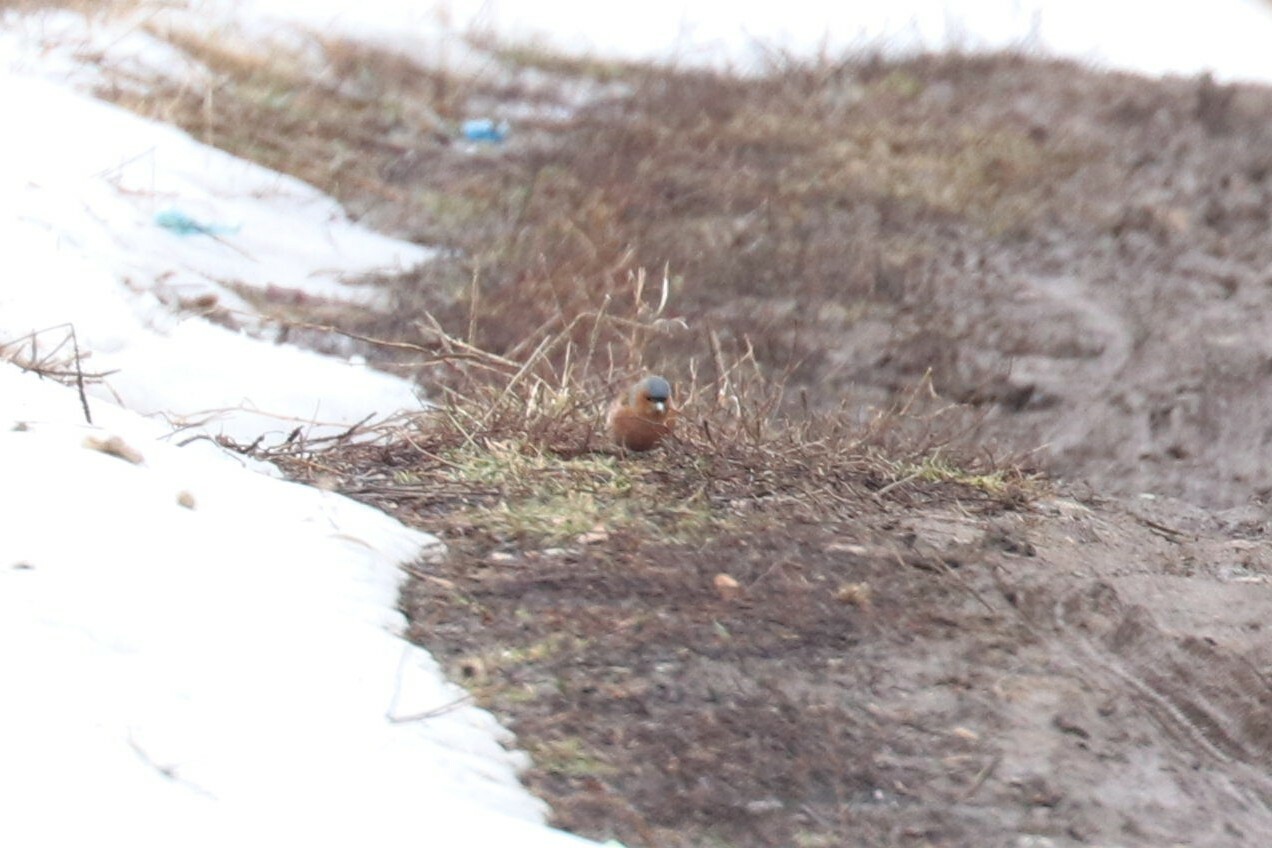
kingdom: Animalia
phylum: Chordata
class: Aves
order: Passeriformes
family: Fringillidae
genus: Fringilla
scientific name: Fringilla coelebs
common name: Common chaffinch
